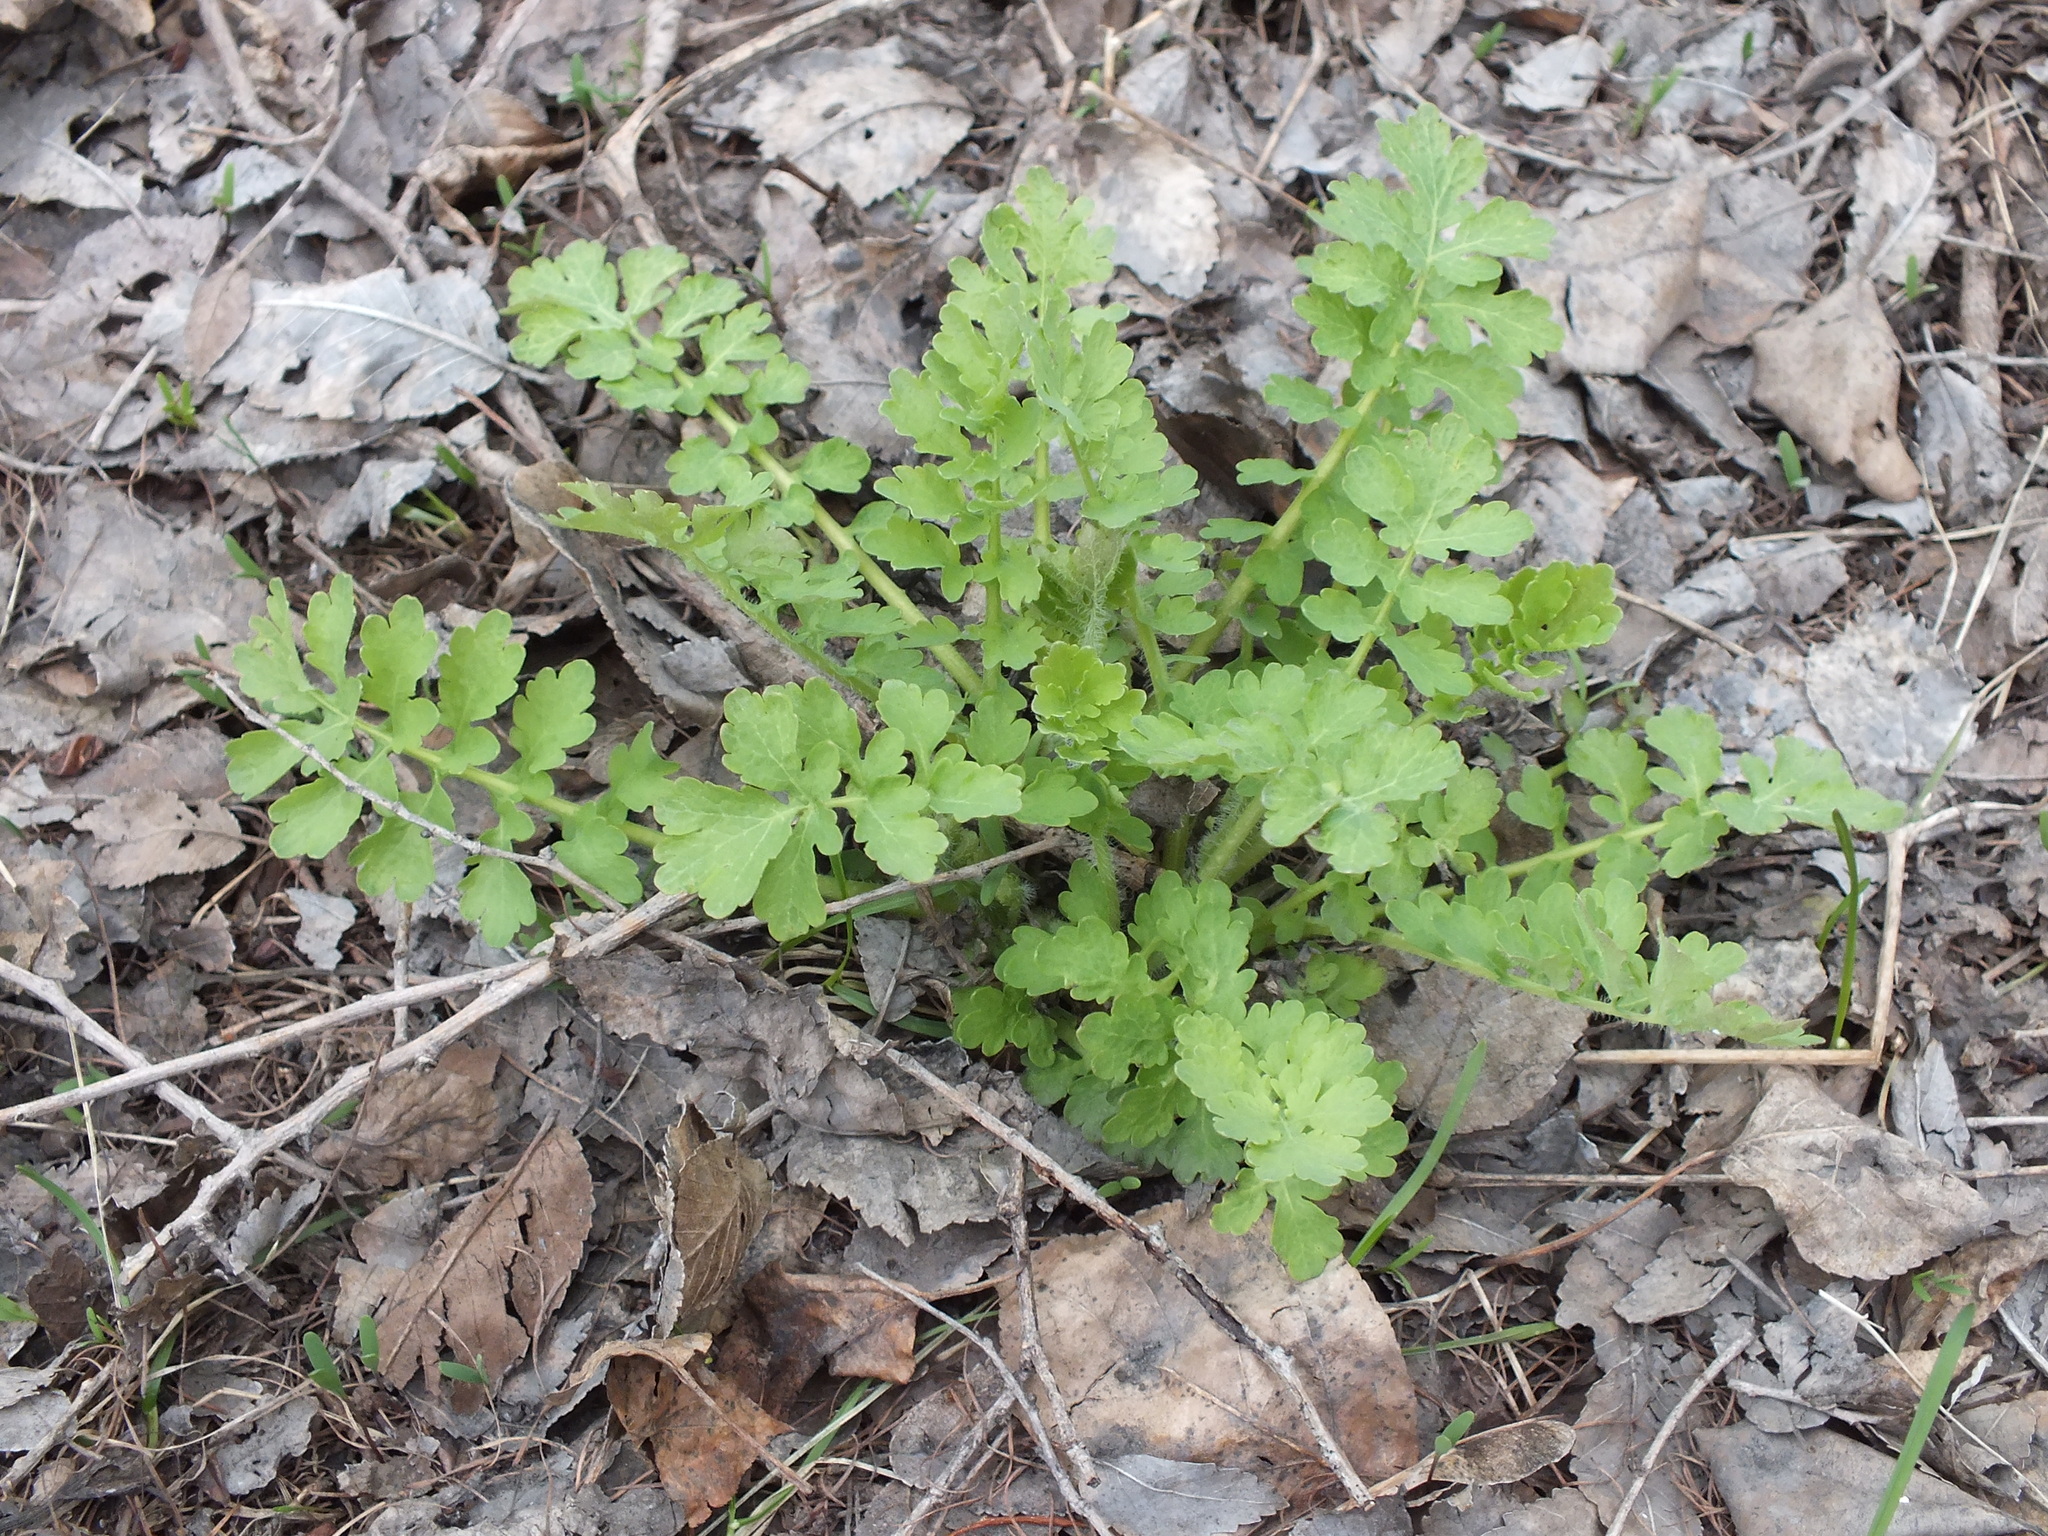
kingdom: Plantae
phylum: Tracheophyta
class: Magnoliopsida
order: Ranunculales
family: Papaveraceae
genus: Chelidonium
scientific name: Chelidonium majus
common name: Greater celandine
